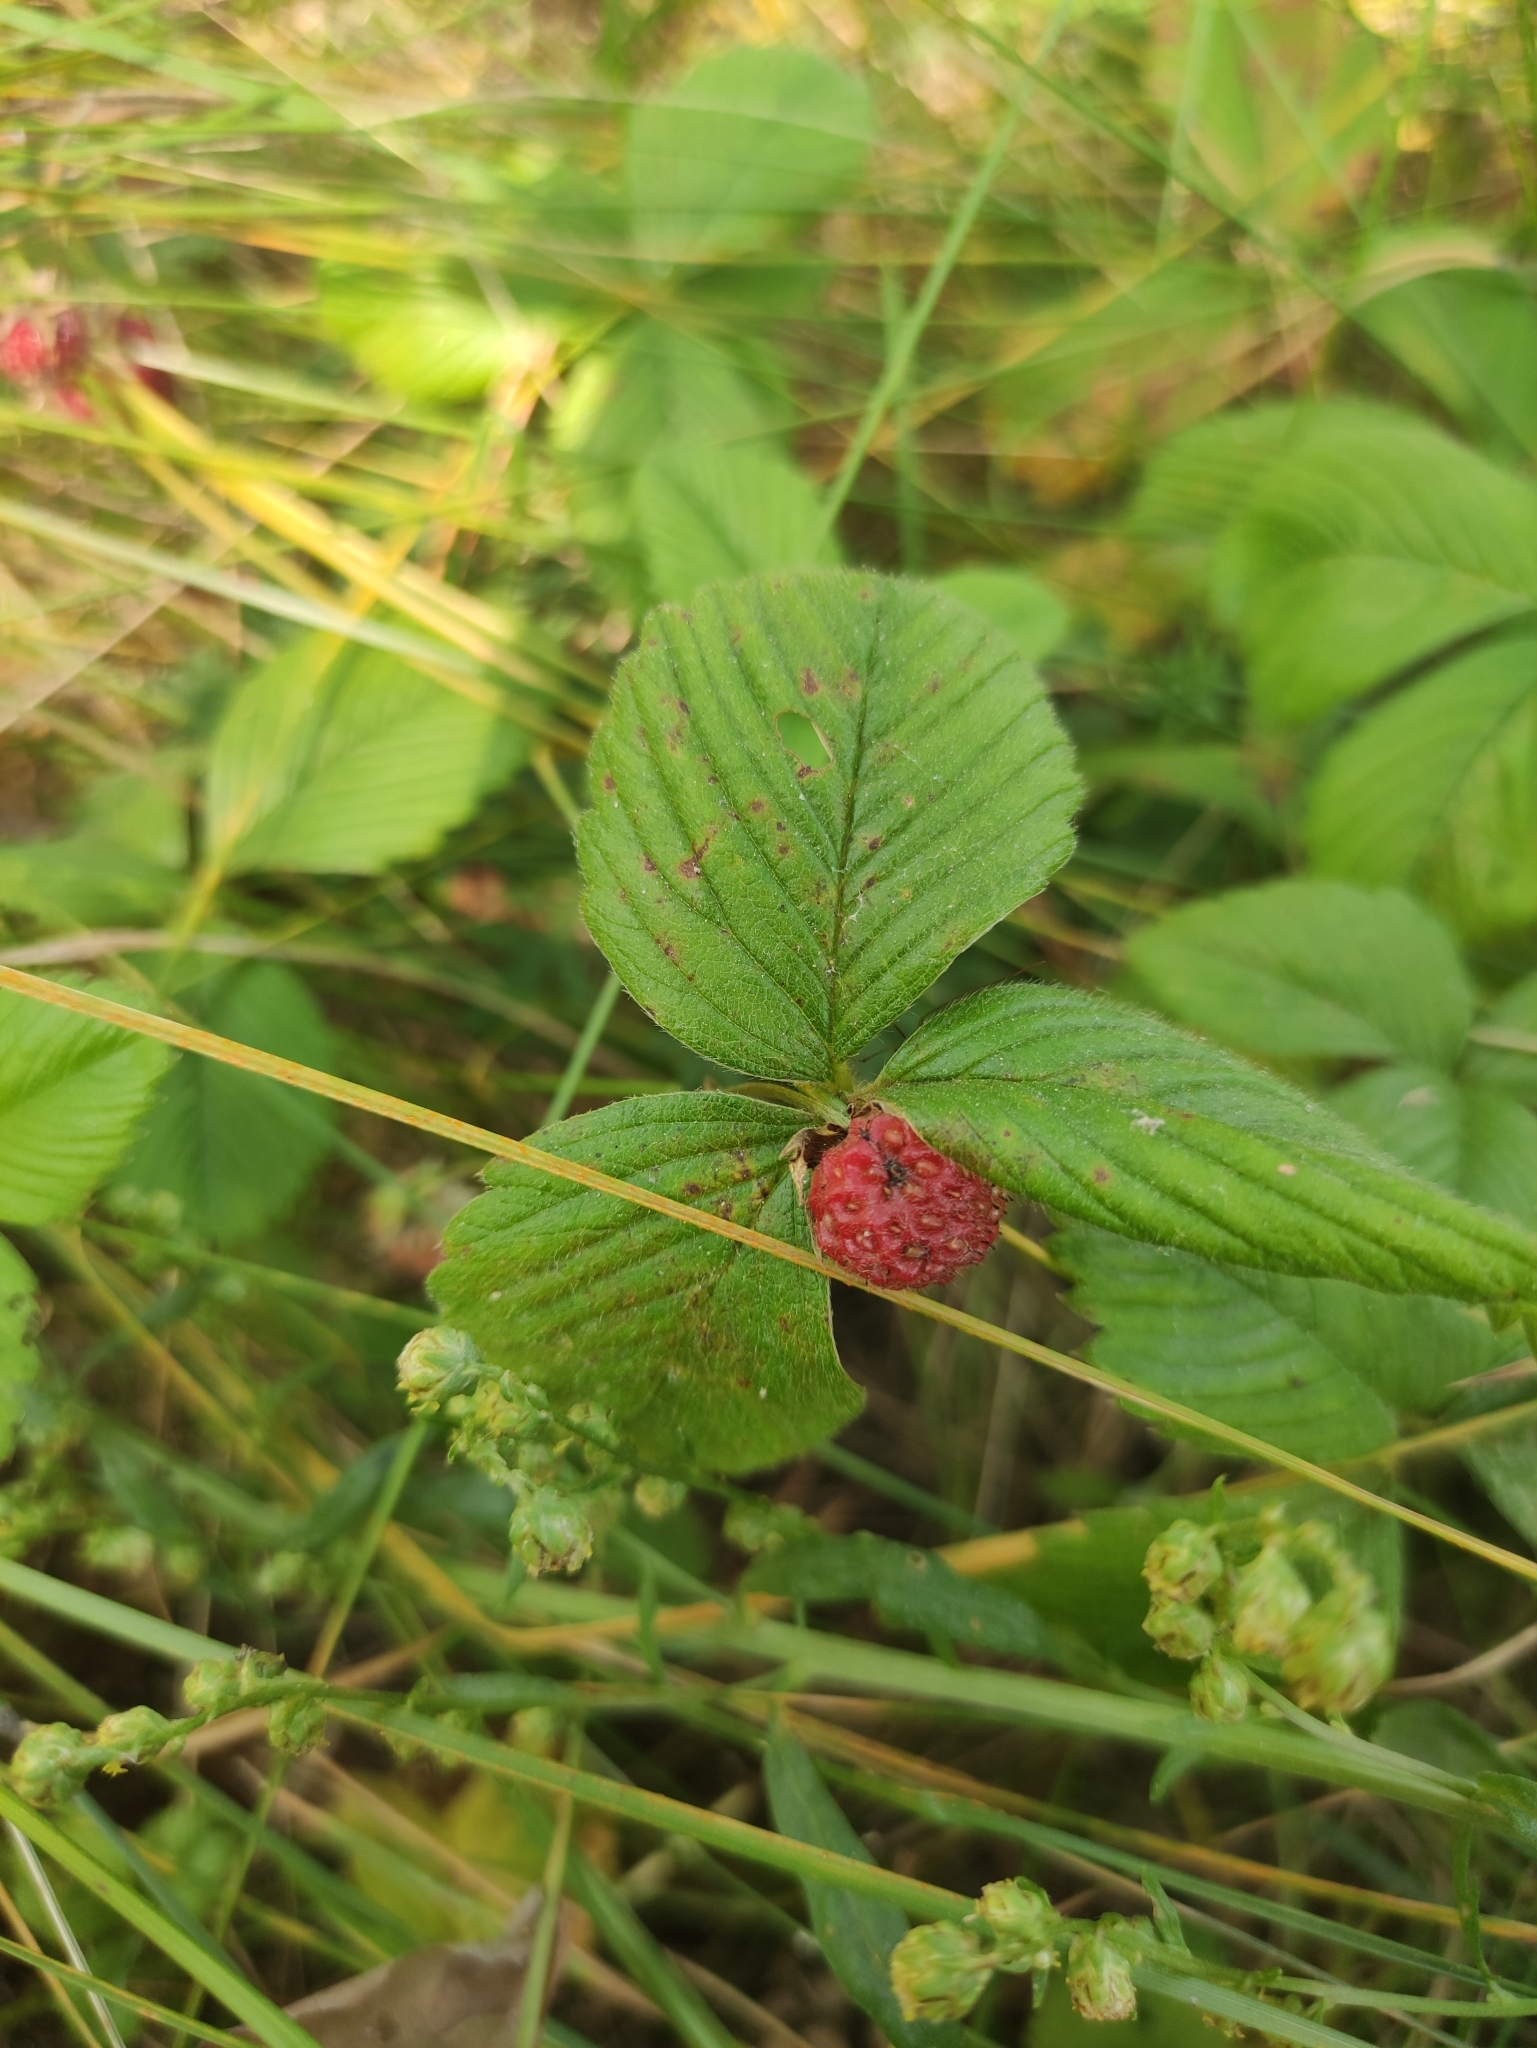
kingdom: Plantae
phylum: Tracheophyta
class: Magnoliopsida
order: Rosales
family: Rosaceae
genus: Fragaria
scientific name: Fragaria viridis
